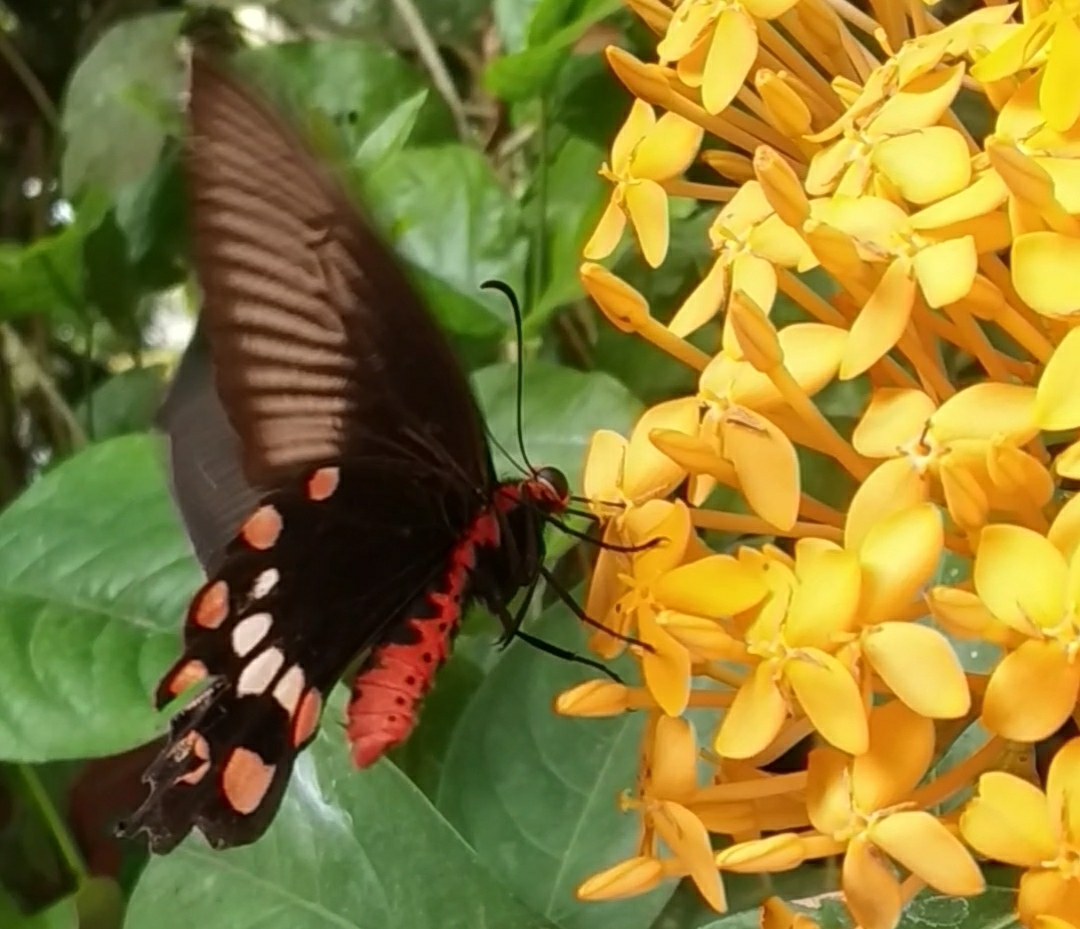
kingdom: Animalia
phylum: Arthropoda
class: Insecta
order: Lepidoptera
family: Papilionidae
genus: Pachliopta
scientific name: Pachliopta aristolochiae
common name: Common rose
